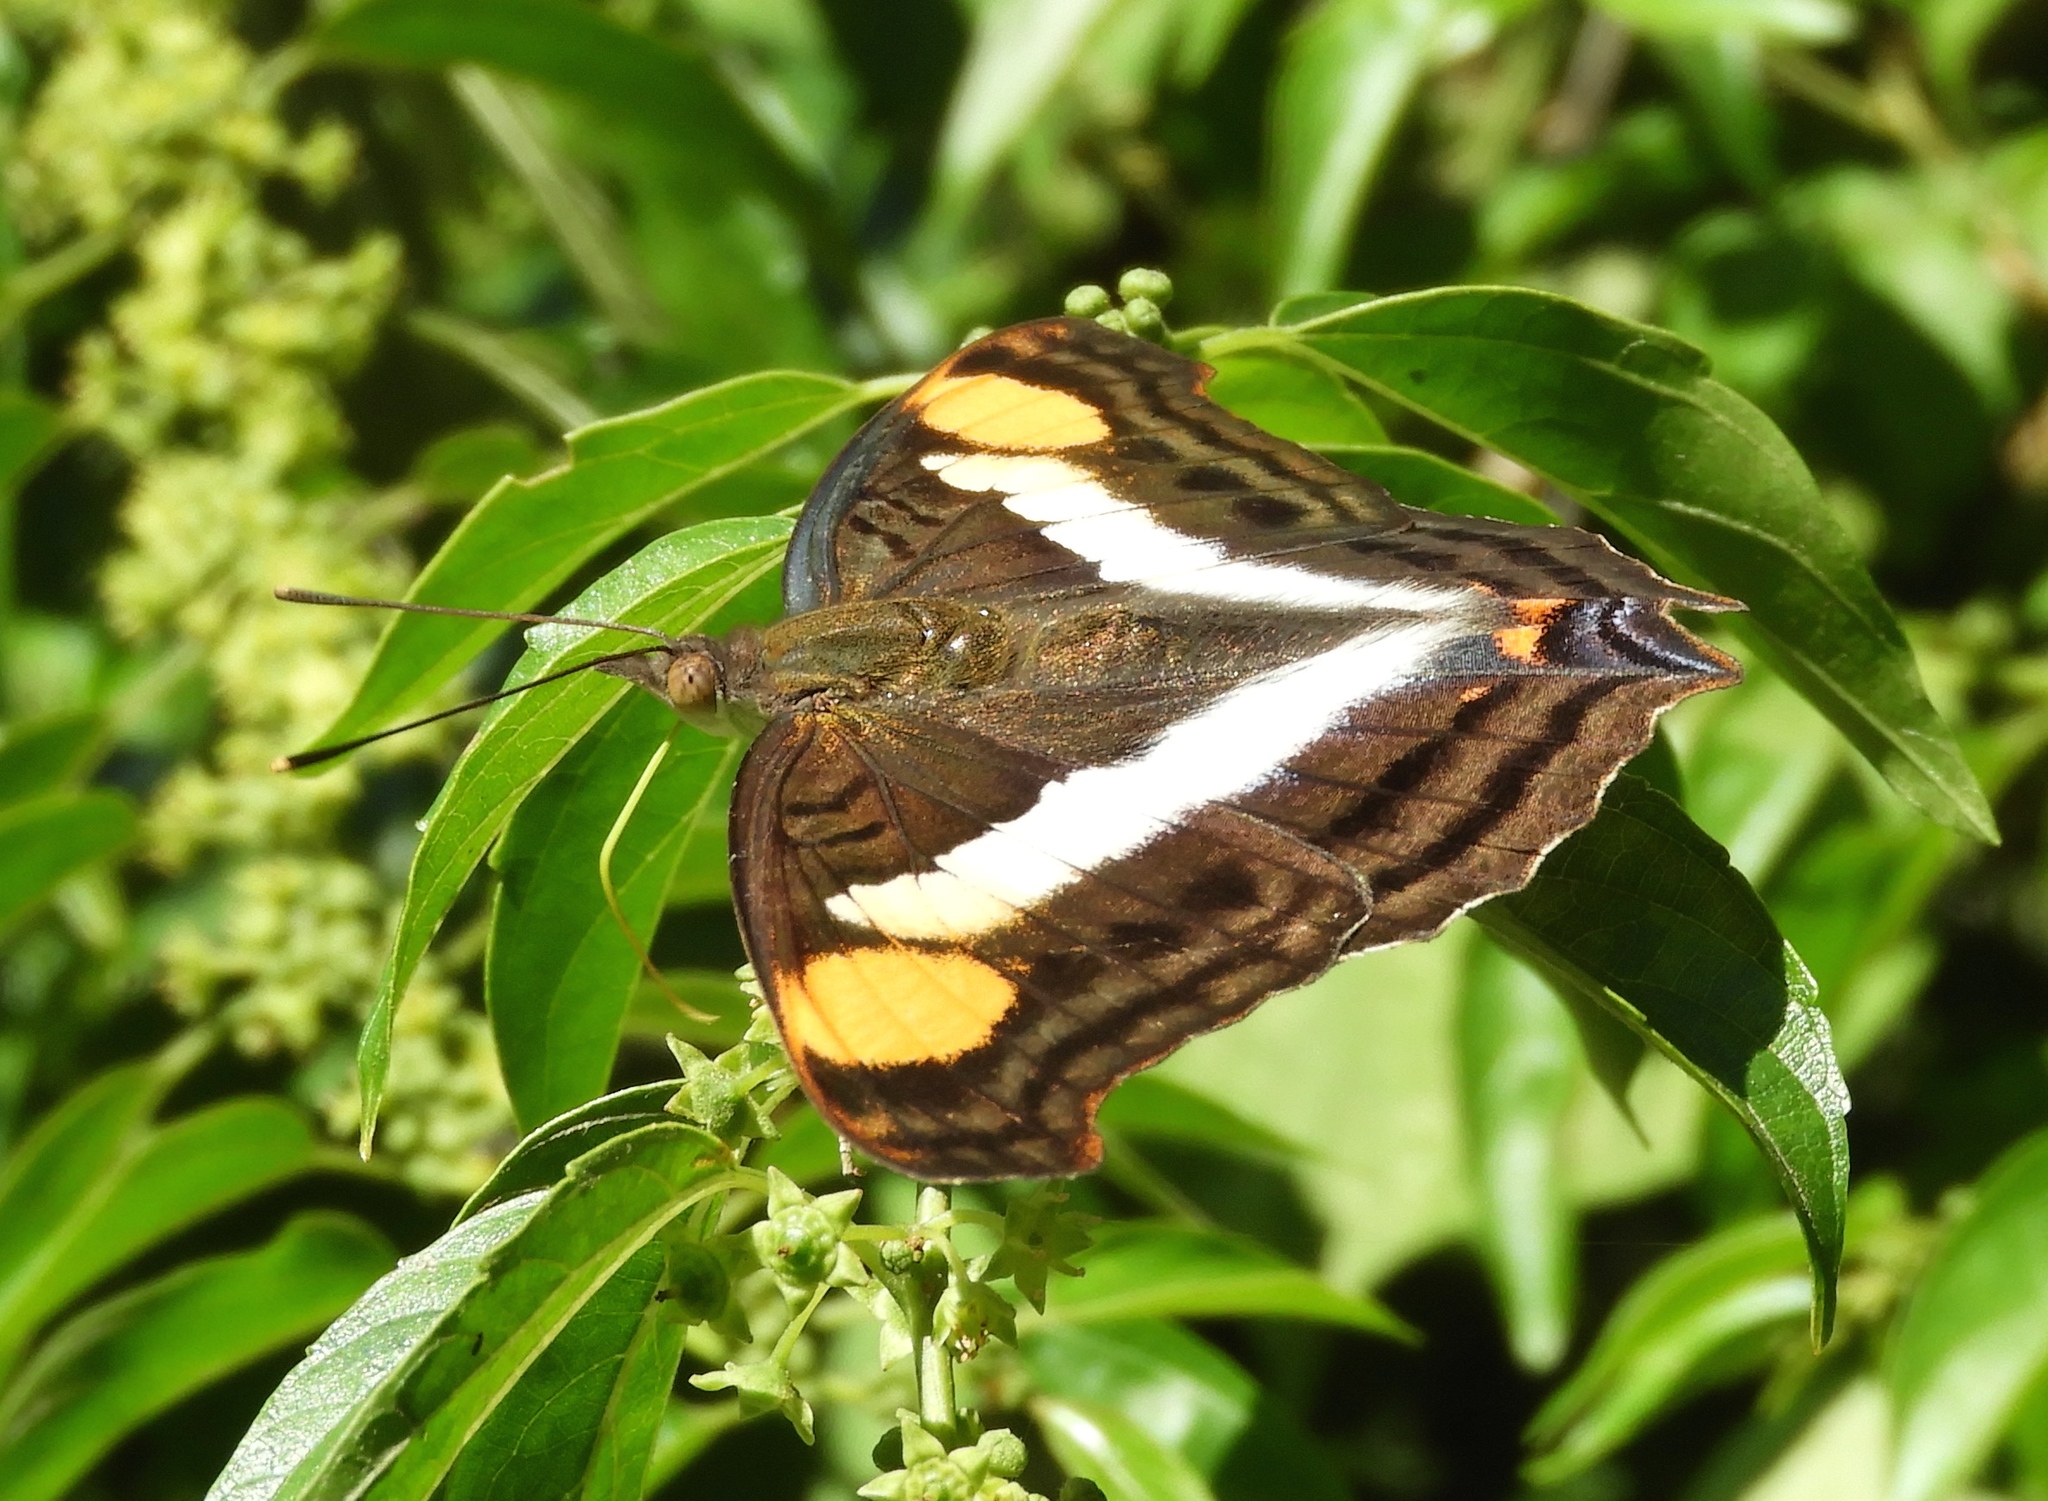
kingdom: Animalia
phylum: Arthropoda
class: Insecta
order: Lepidoptera
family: Nymphalidae
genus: Doxocopa
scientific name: Doxocopa laure
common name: Silver emperor
